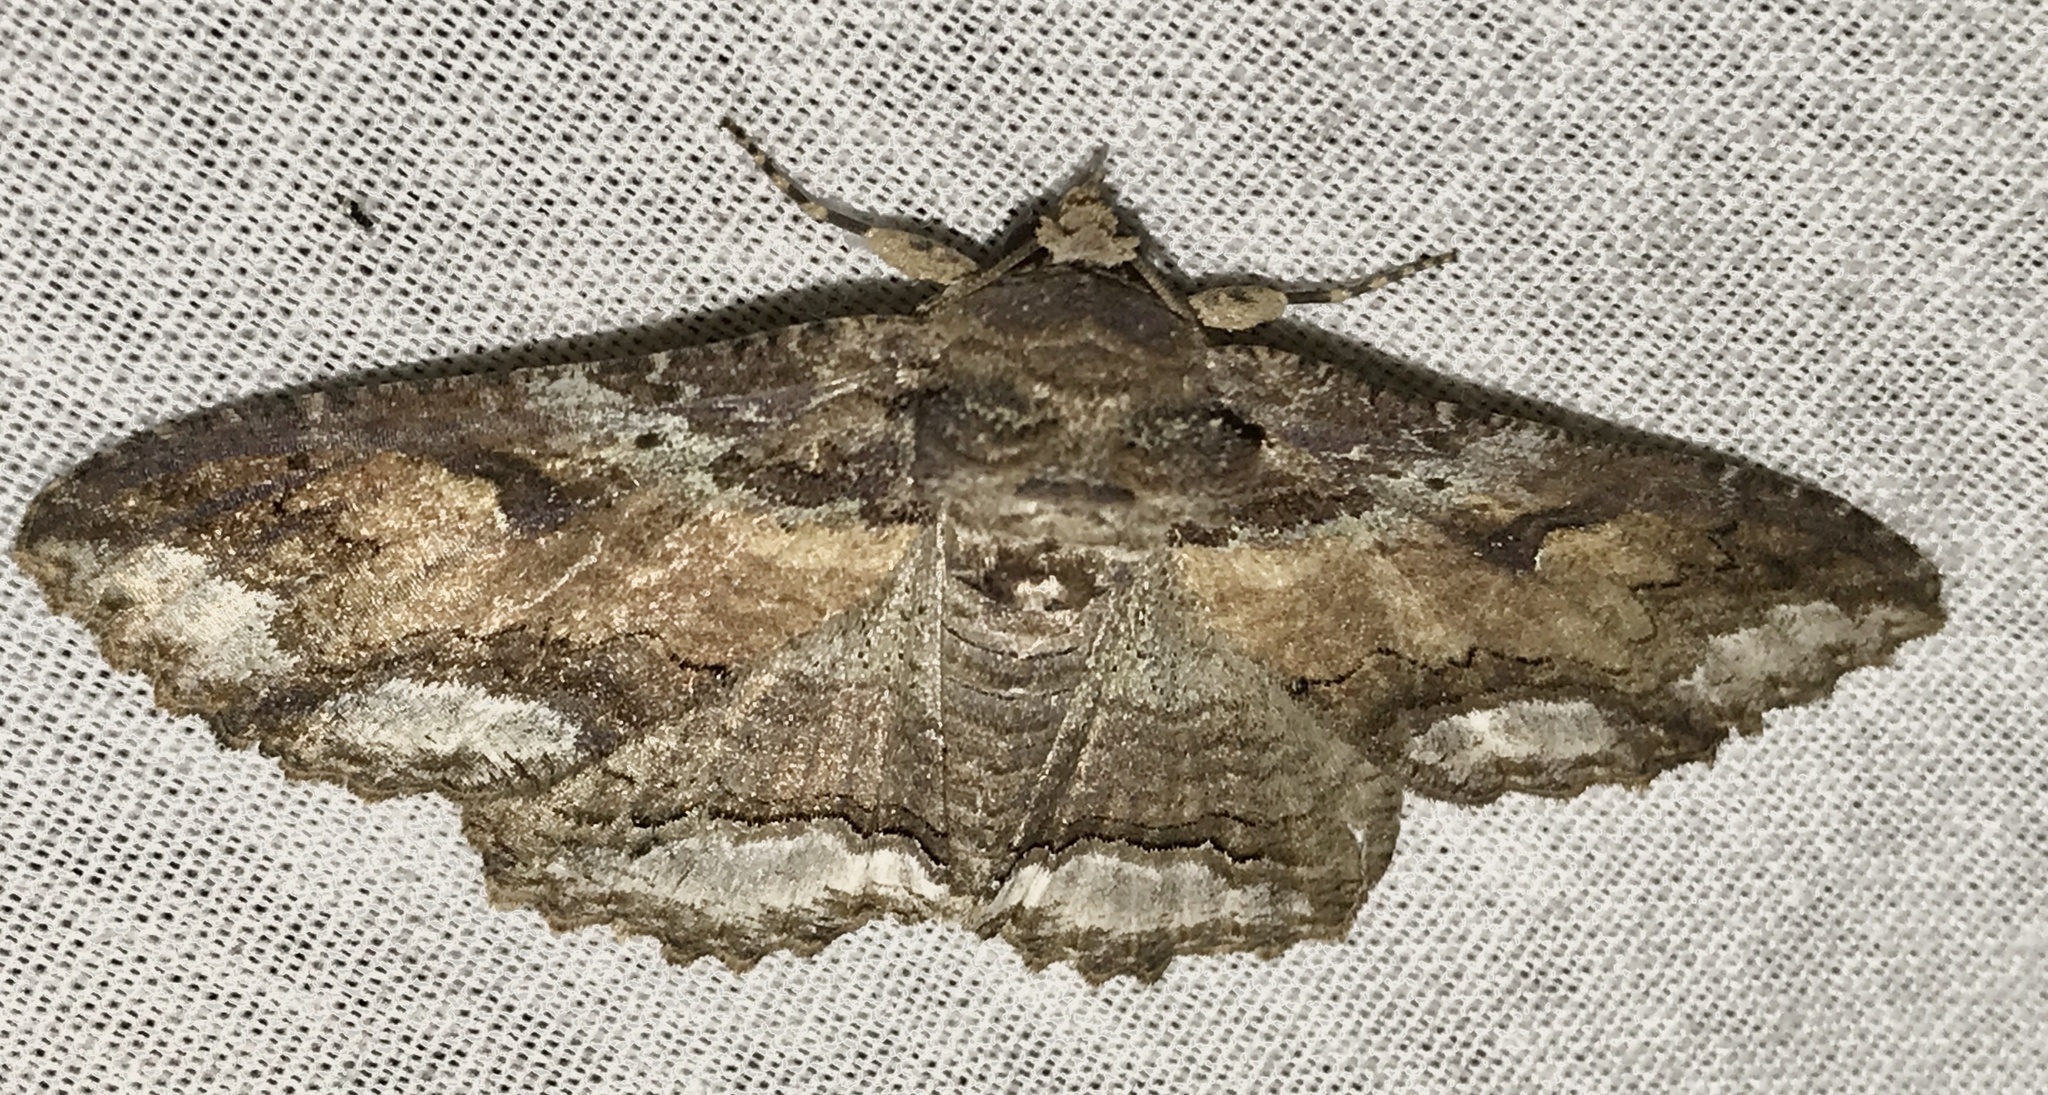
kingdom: Animalia
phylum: Arthropoda
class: Insecta
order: Lepidoptera
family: Erebidae
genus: Zale
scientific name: Zale lunata
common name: Lunate zale moth
